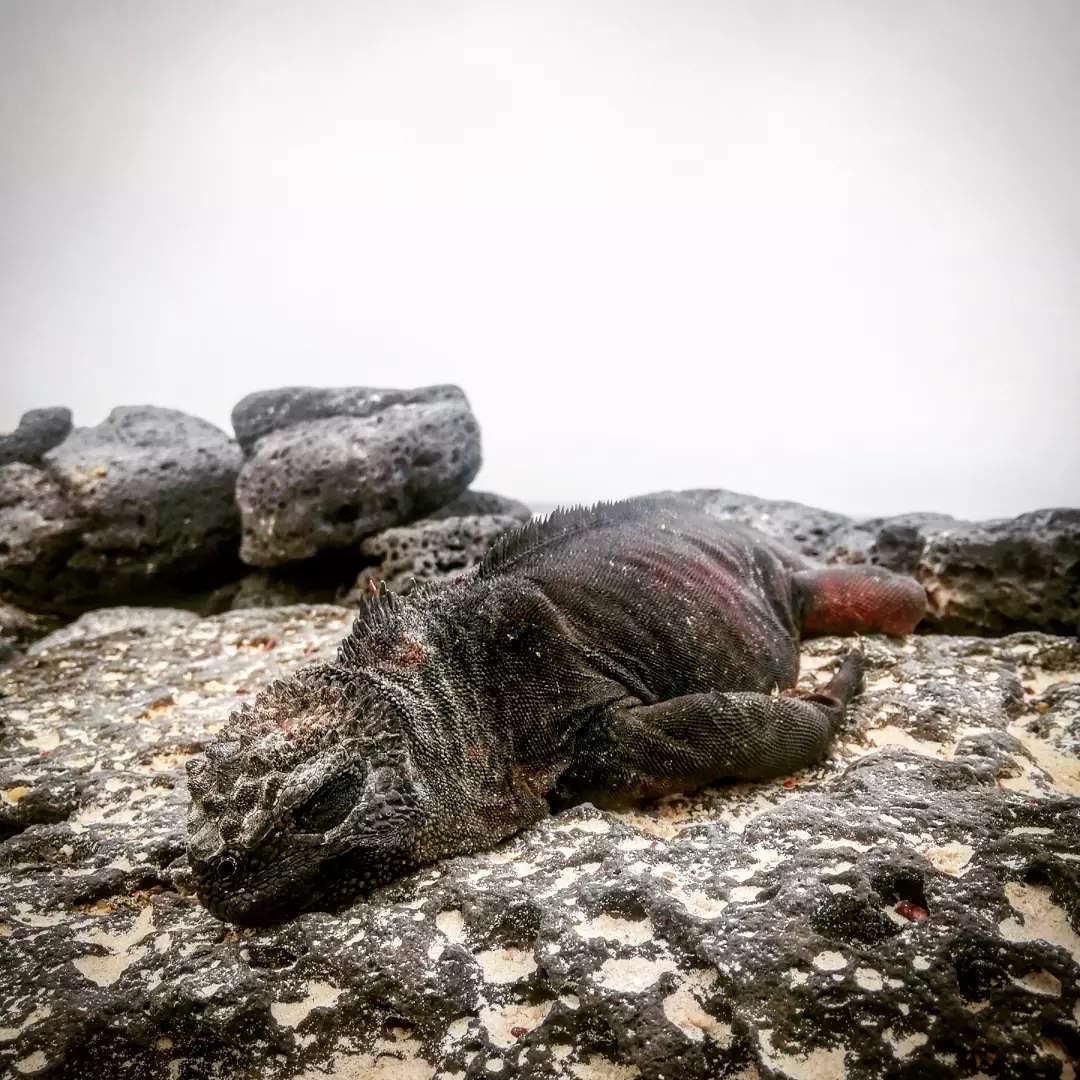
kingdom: Animalia
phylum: Chordata
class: Squamata
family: Iguanidae
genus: Amblyrhynchus
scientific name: Amblyrhynchus cristatus
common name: Marine iguana
